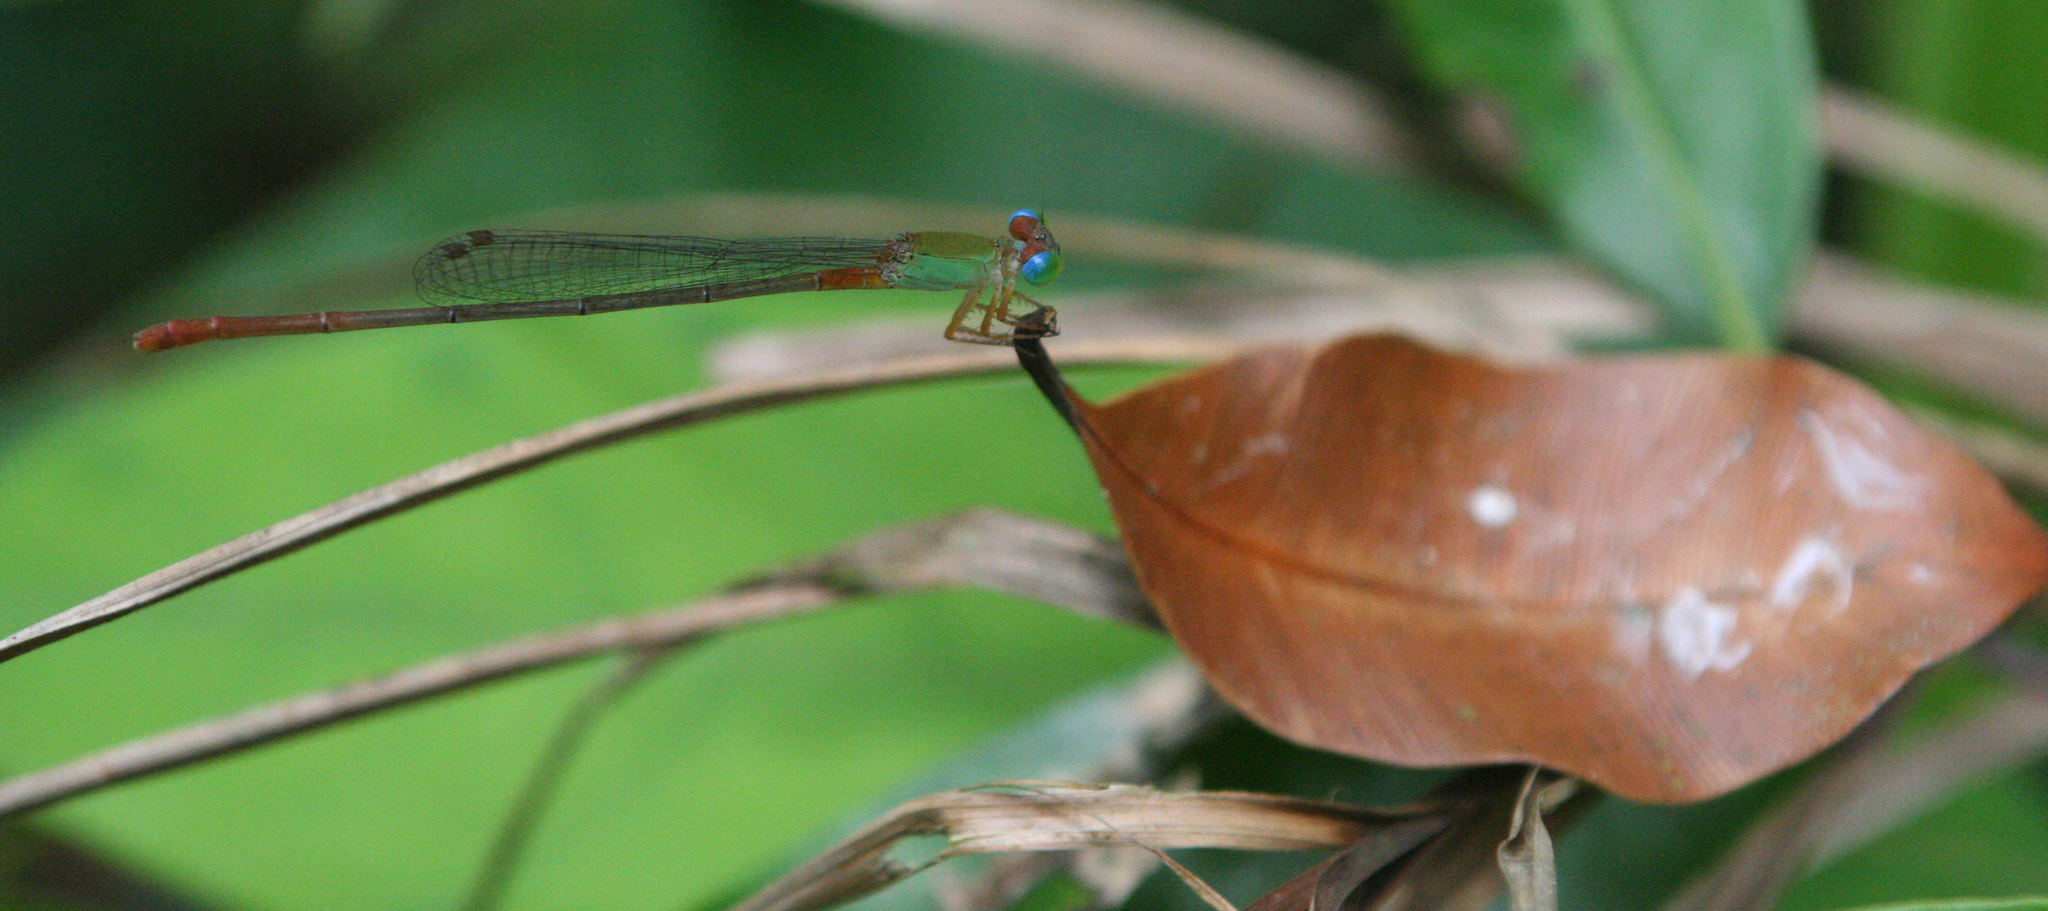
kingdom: Animalia
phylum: Arthropoda
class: Insecta
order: Odonata
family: Coenagrionidae
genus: Ceriagrion
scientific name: Ceriagrion cerinorubellum
